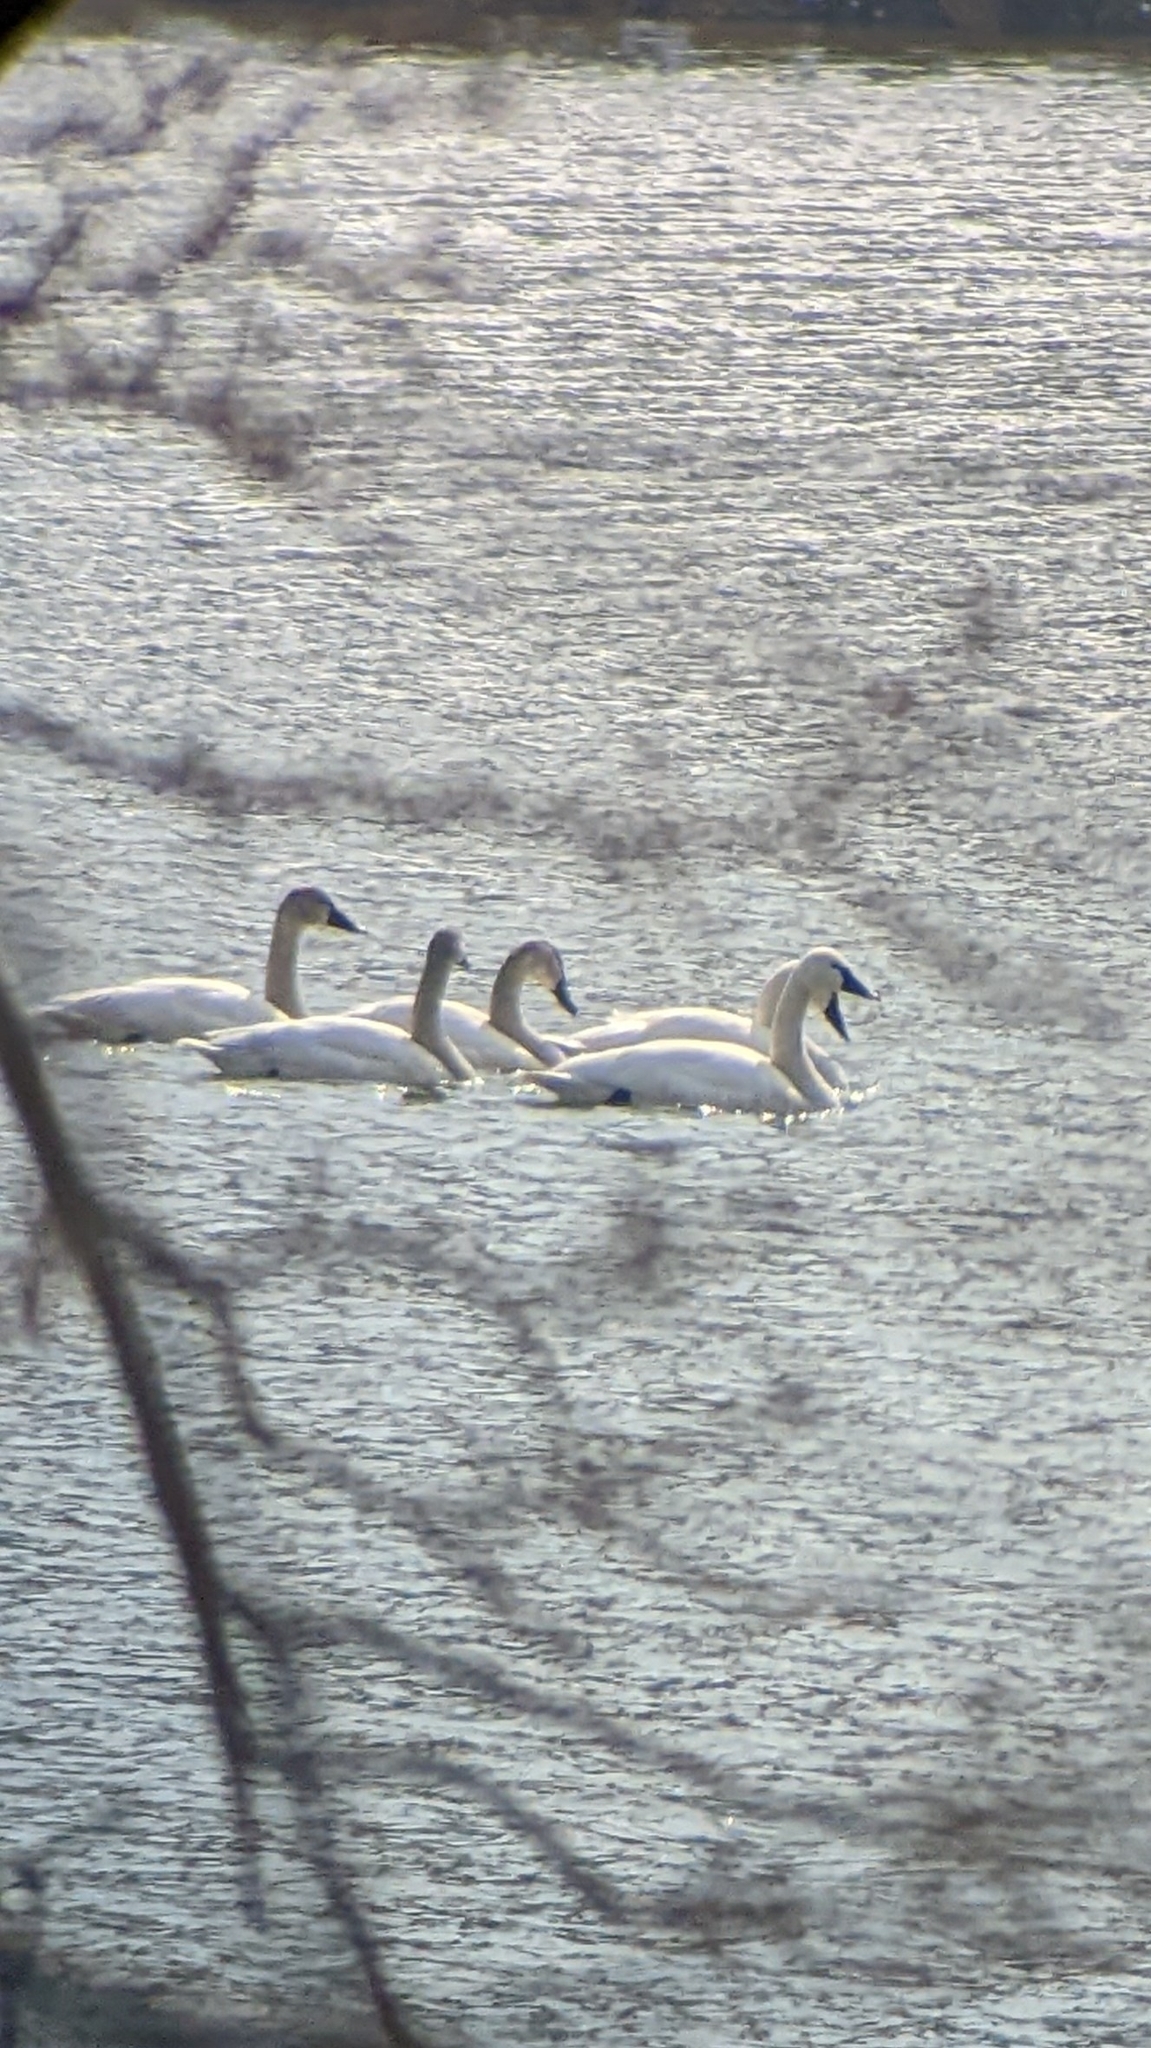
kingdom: Animalia
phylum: Chordata
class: Aves
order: Anseriformes
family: Anatidae
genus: Cygnus
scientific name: Cygnus columbianus
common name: Tundra swan
